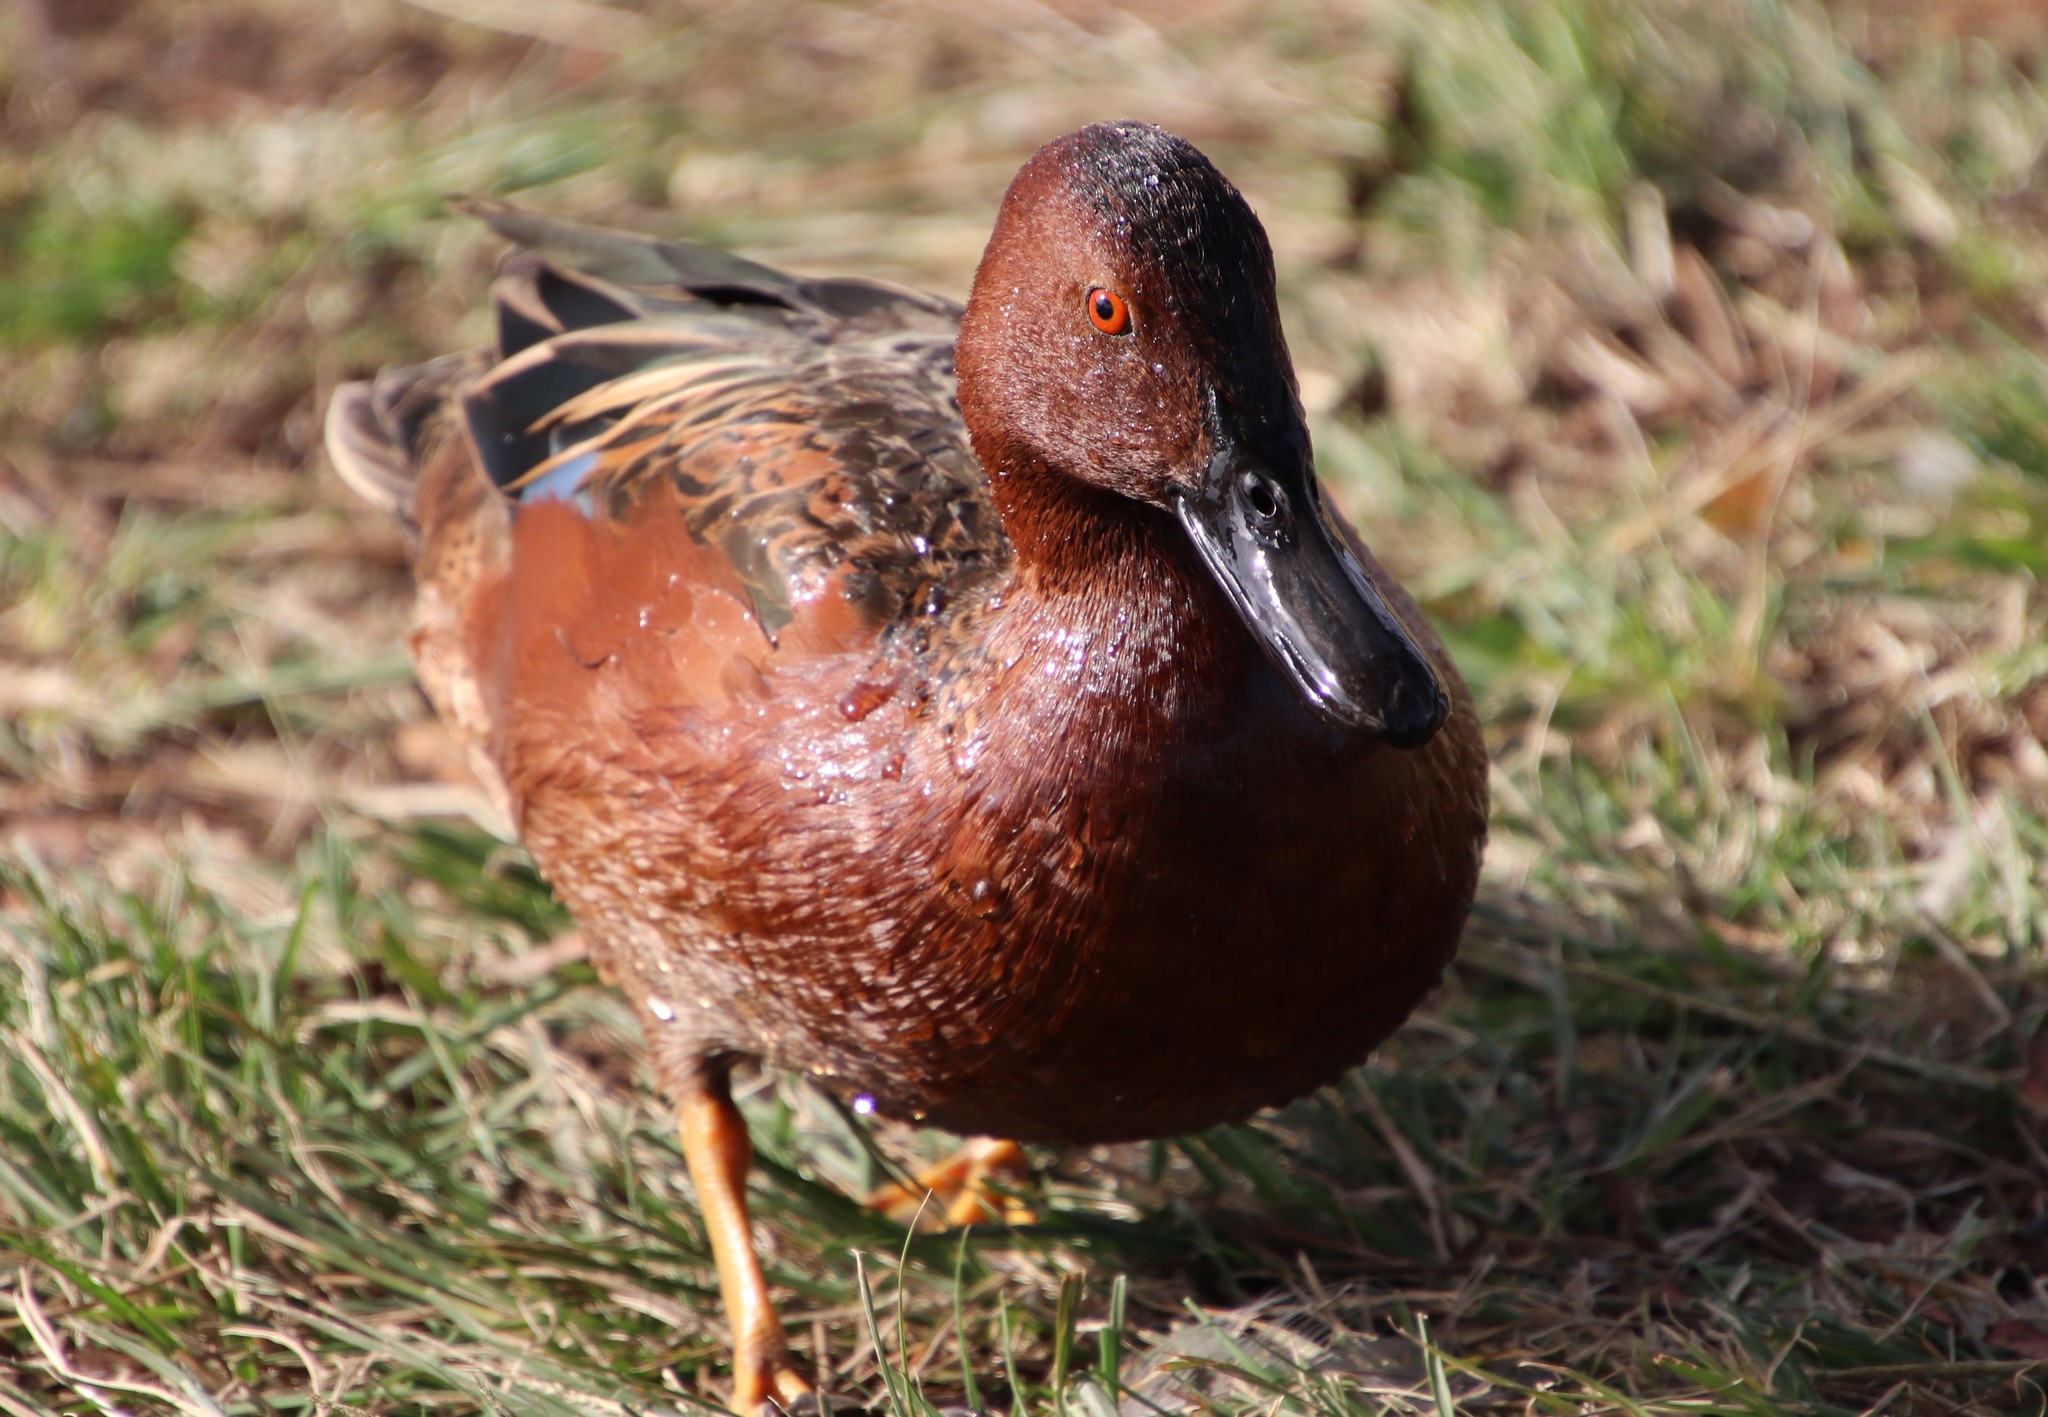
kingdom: Animalia
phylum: Chordata
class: Aves
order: Anseriformes
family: Anatidae
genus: Spatula
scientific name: Spatula cyanoptera
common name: Cinnamon teal
